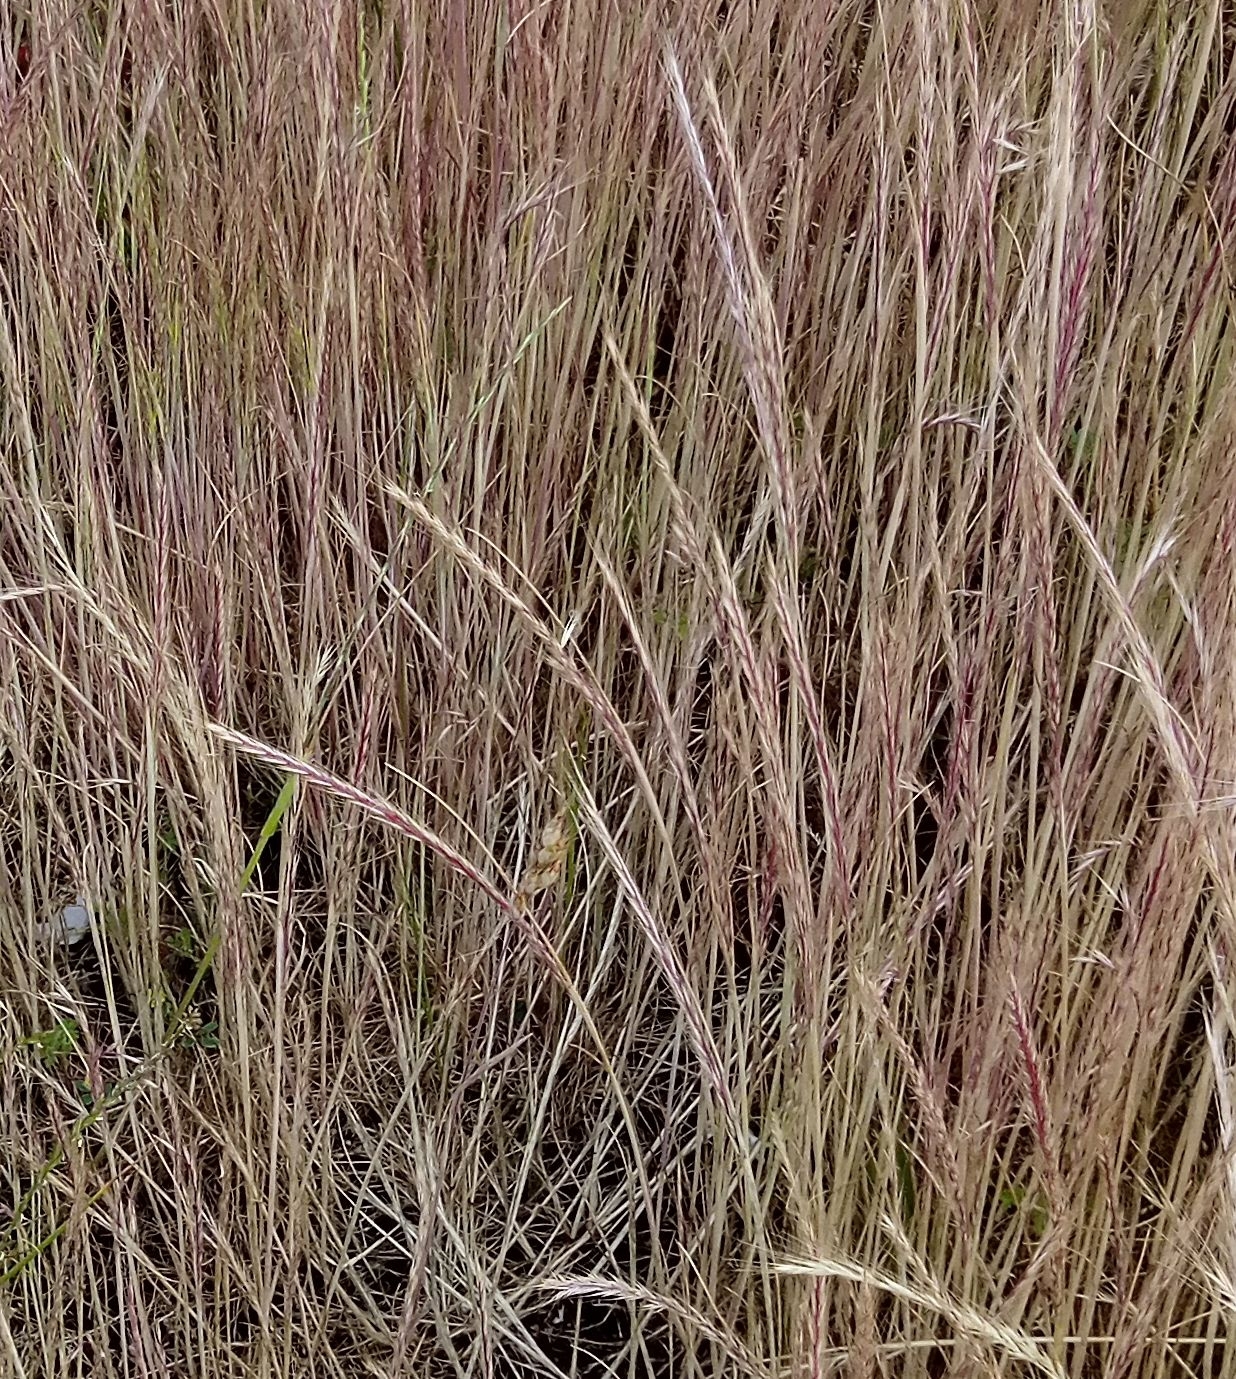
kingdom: Plantae
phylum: Tracheophyta
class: Liliopsida
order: Poales
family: Poaceae
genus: Festuca
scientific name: Festuca myuros
